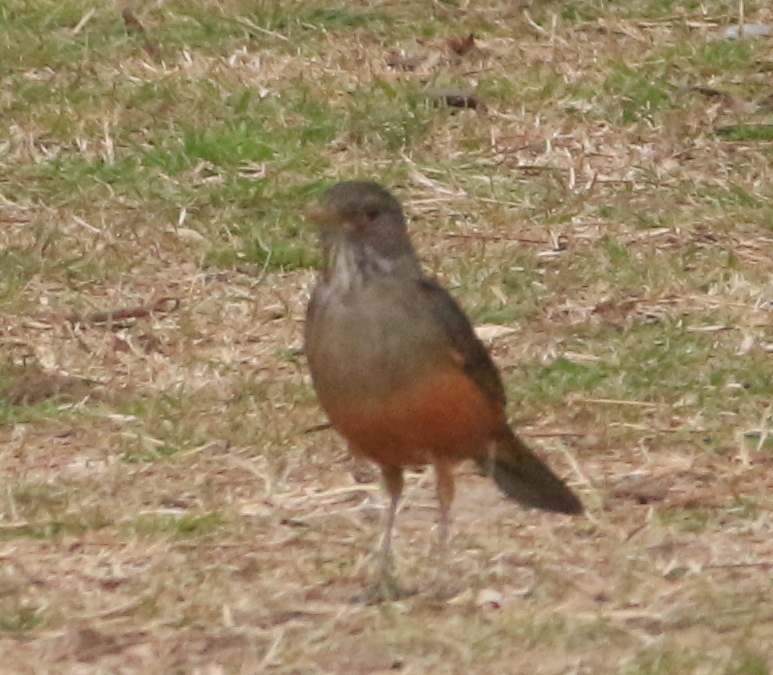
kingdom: Animalia
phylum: Chordata
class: Aves
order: Passeriformes
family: Turdidae
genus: Turdus
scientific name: Turdus rufiventris
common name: Rufous-bellied thrush
